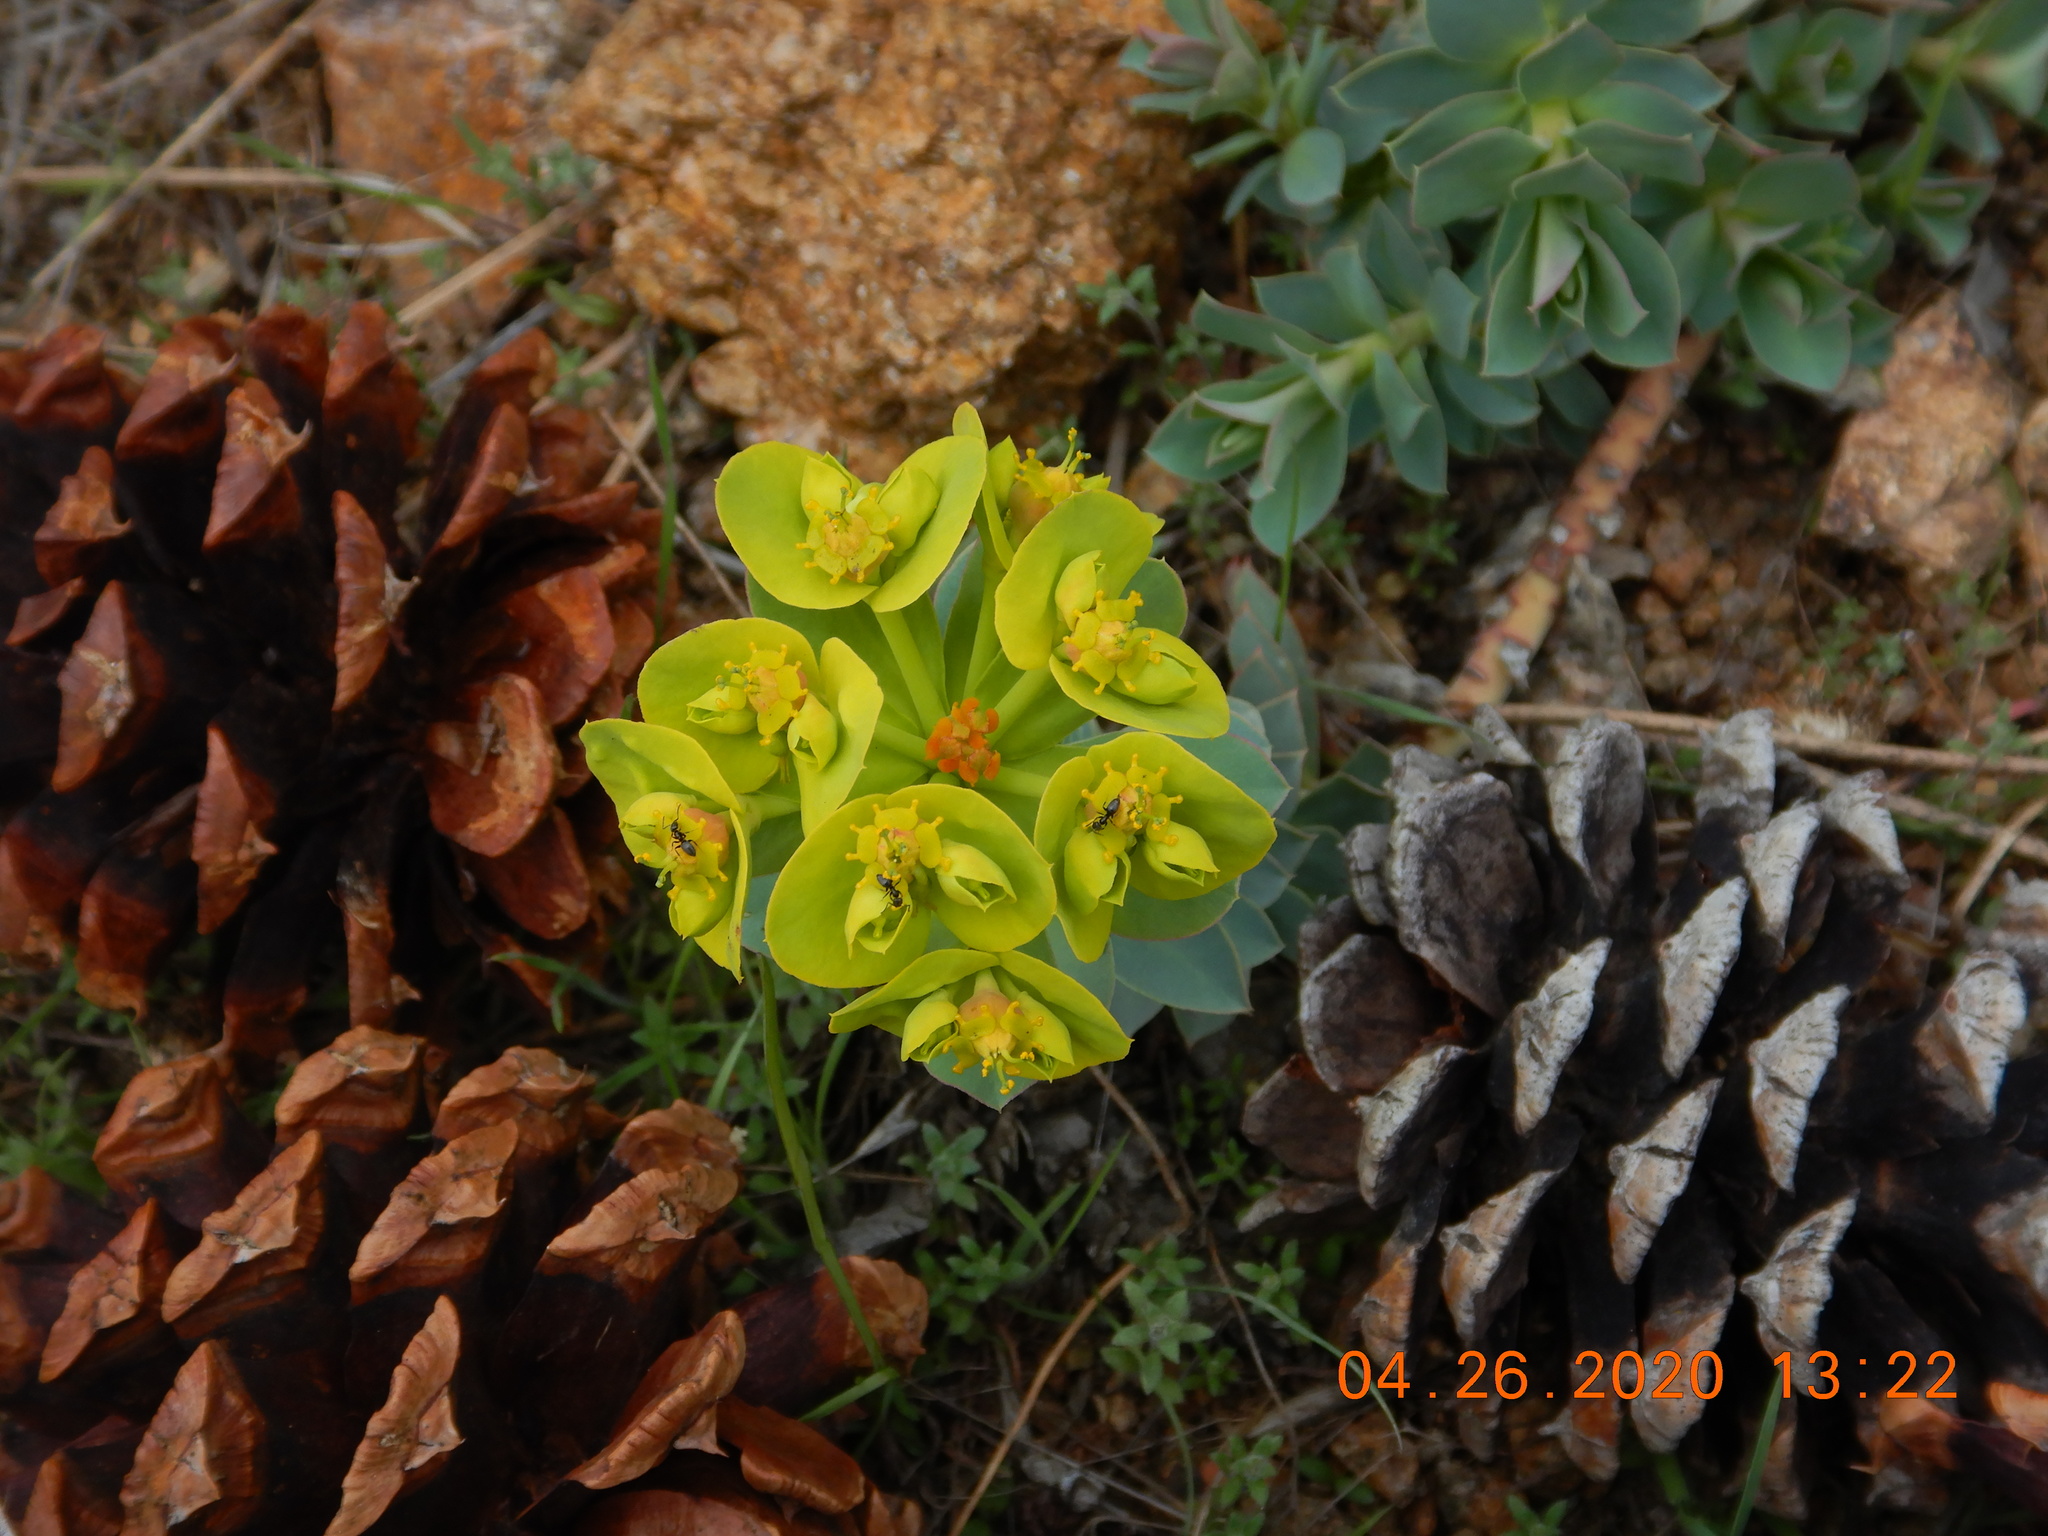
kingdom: Plantae
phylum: Tracheophyta
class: Magnoliopsida
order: Malpighiales
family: Euphorbiaceae
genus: Euphorbia
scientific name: Euphorbia myrsinites
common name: Myrtle spurge
